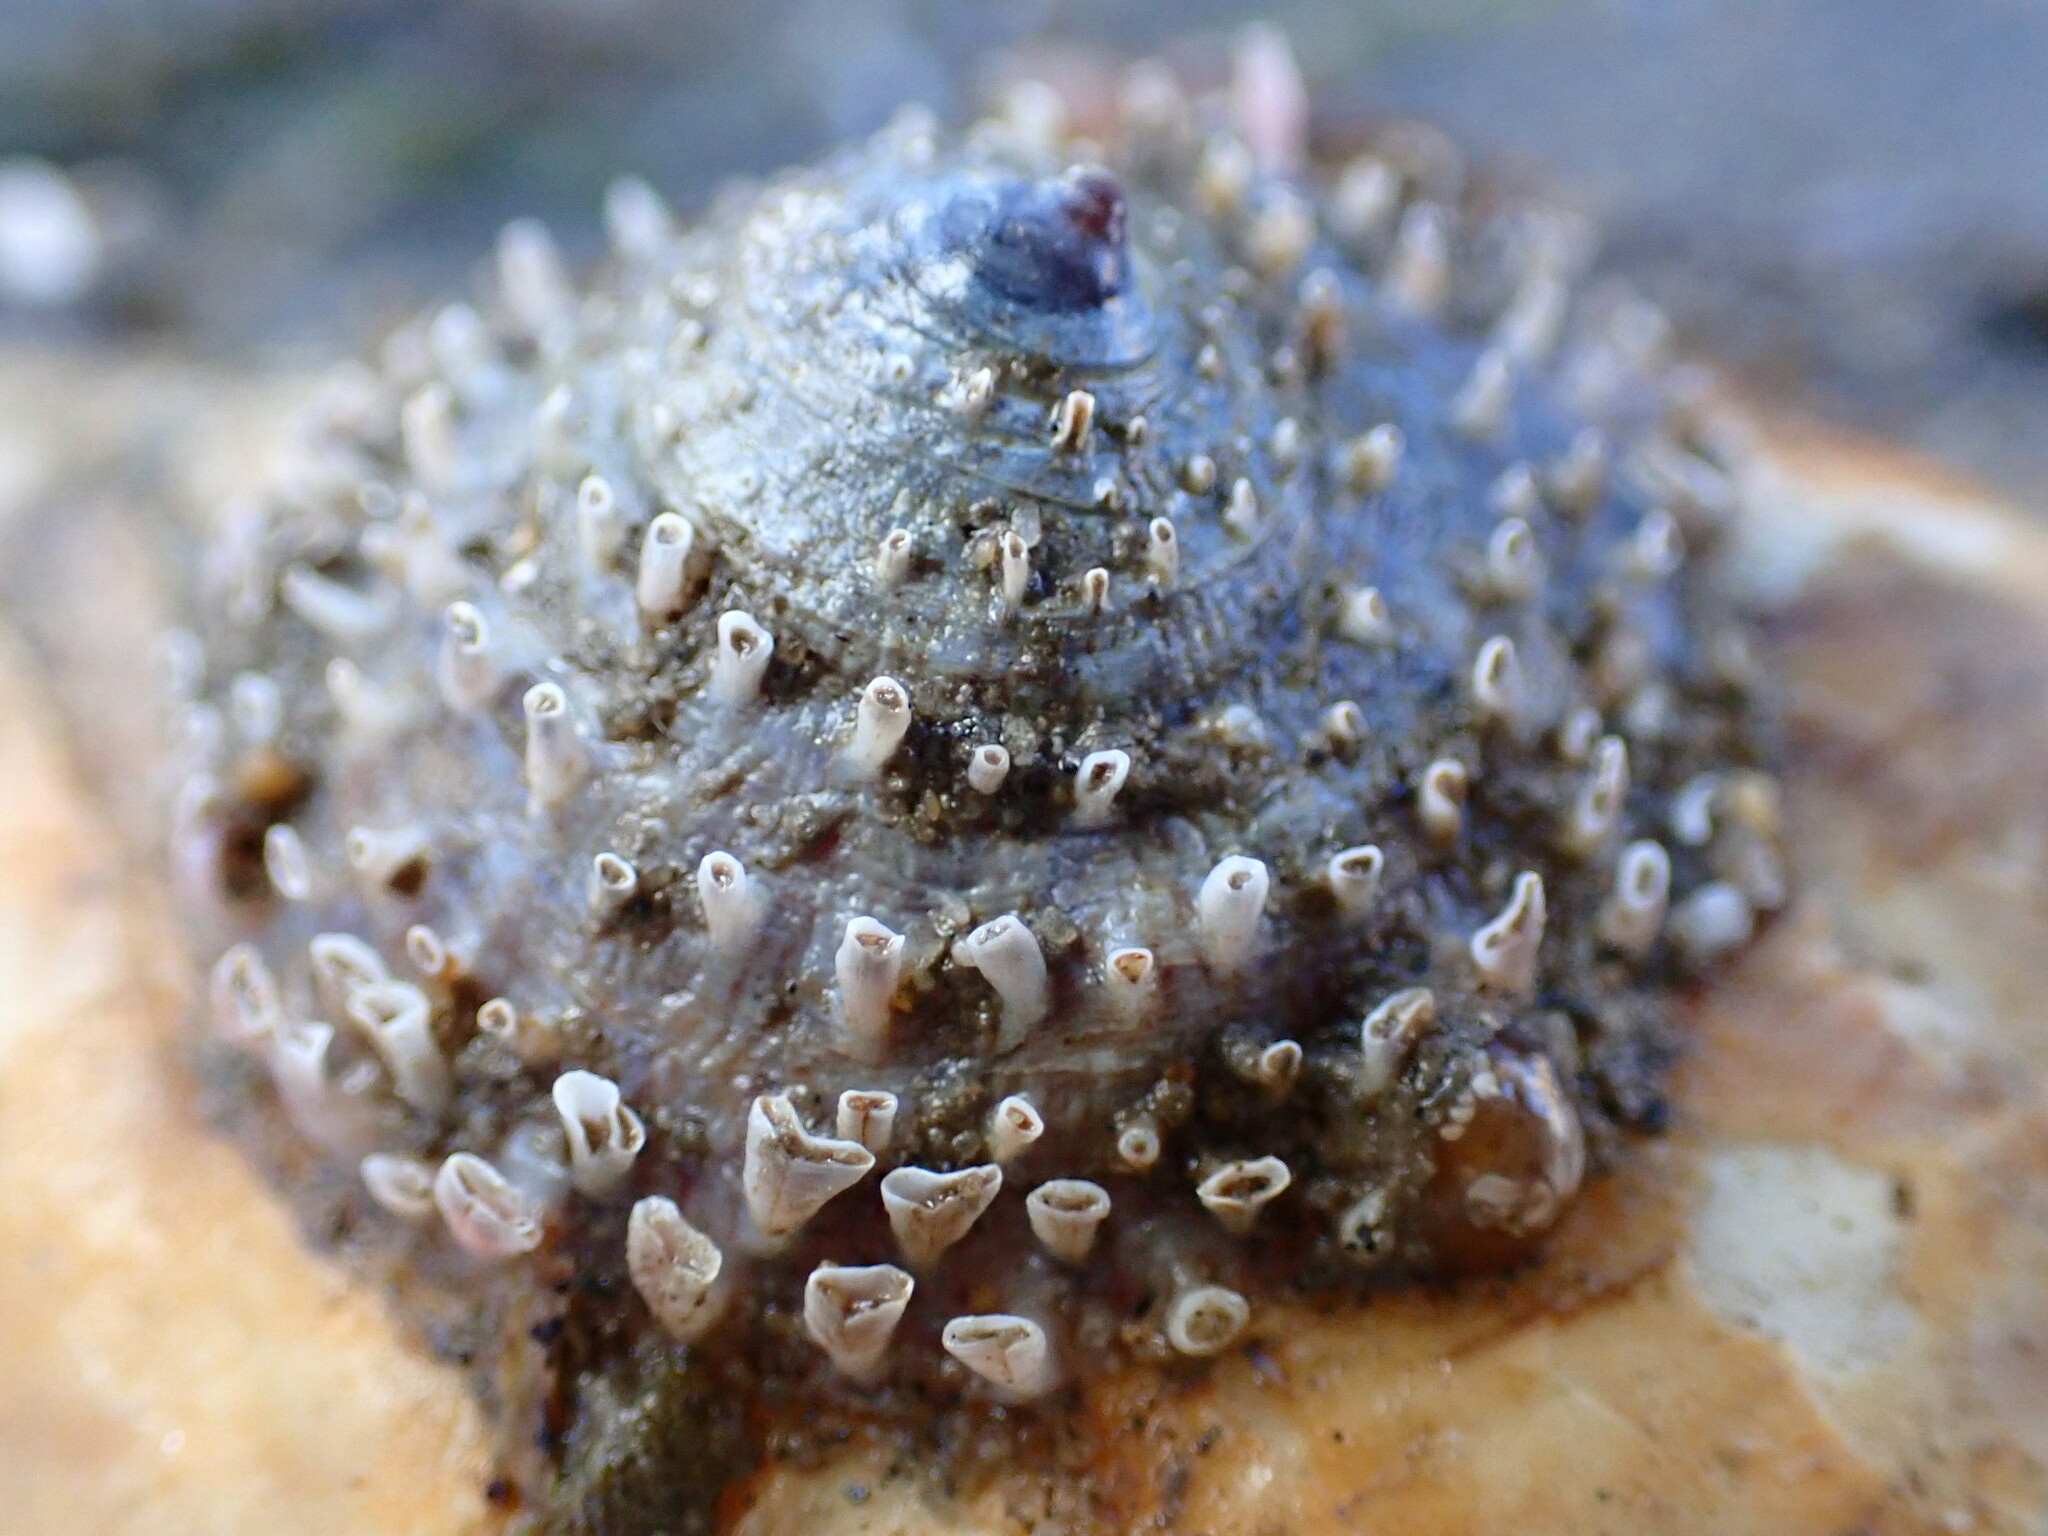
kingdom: Animalia
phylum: Mollusca
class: Gastropoda
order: Littorinimorpha
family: Calyptraeidae
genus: Crucibulum
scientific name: Crucibulum spinosum
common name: Spiny cup-and-saucer
